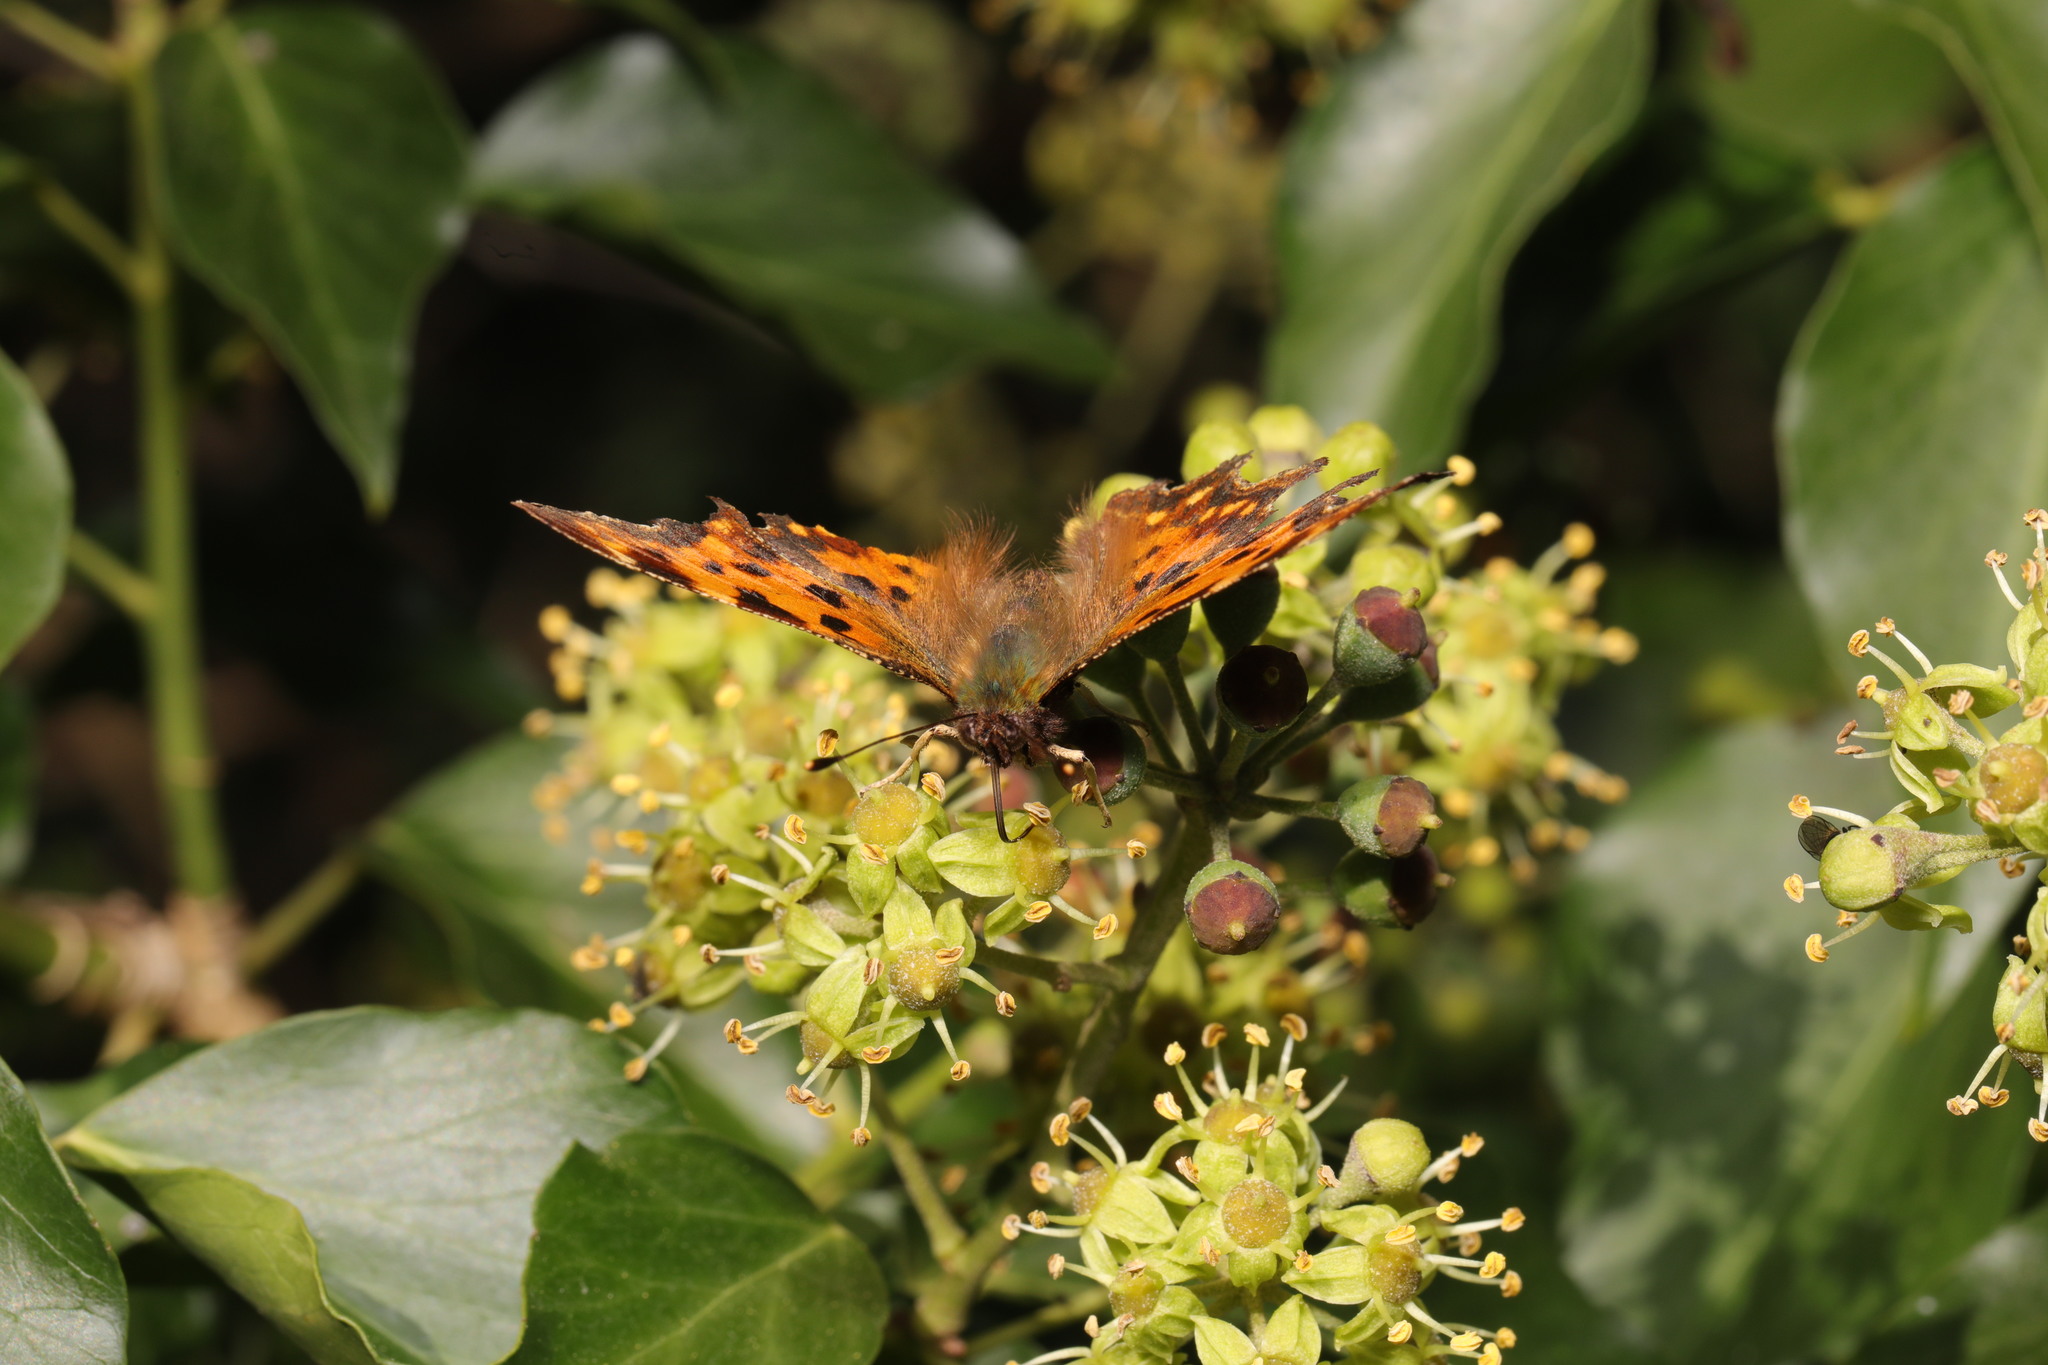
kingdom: Animalia
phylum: Arthropoda
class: Insecta
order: Lepidoptera
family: Nymphalidae
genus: Polygonia
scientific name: Polygonia c-album
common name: Comma
